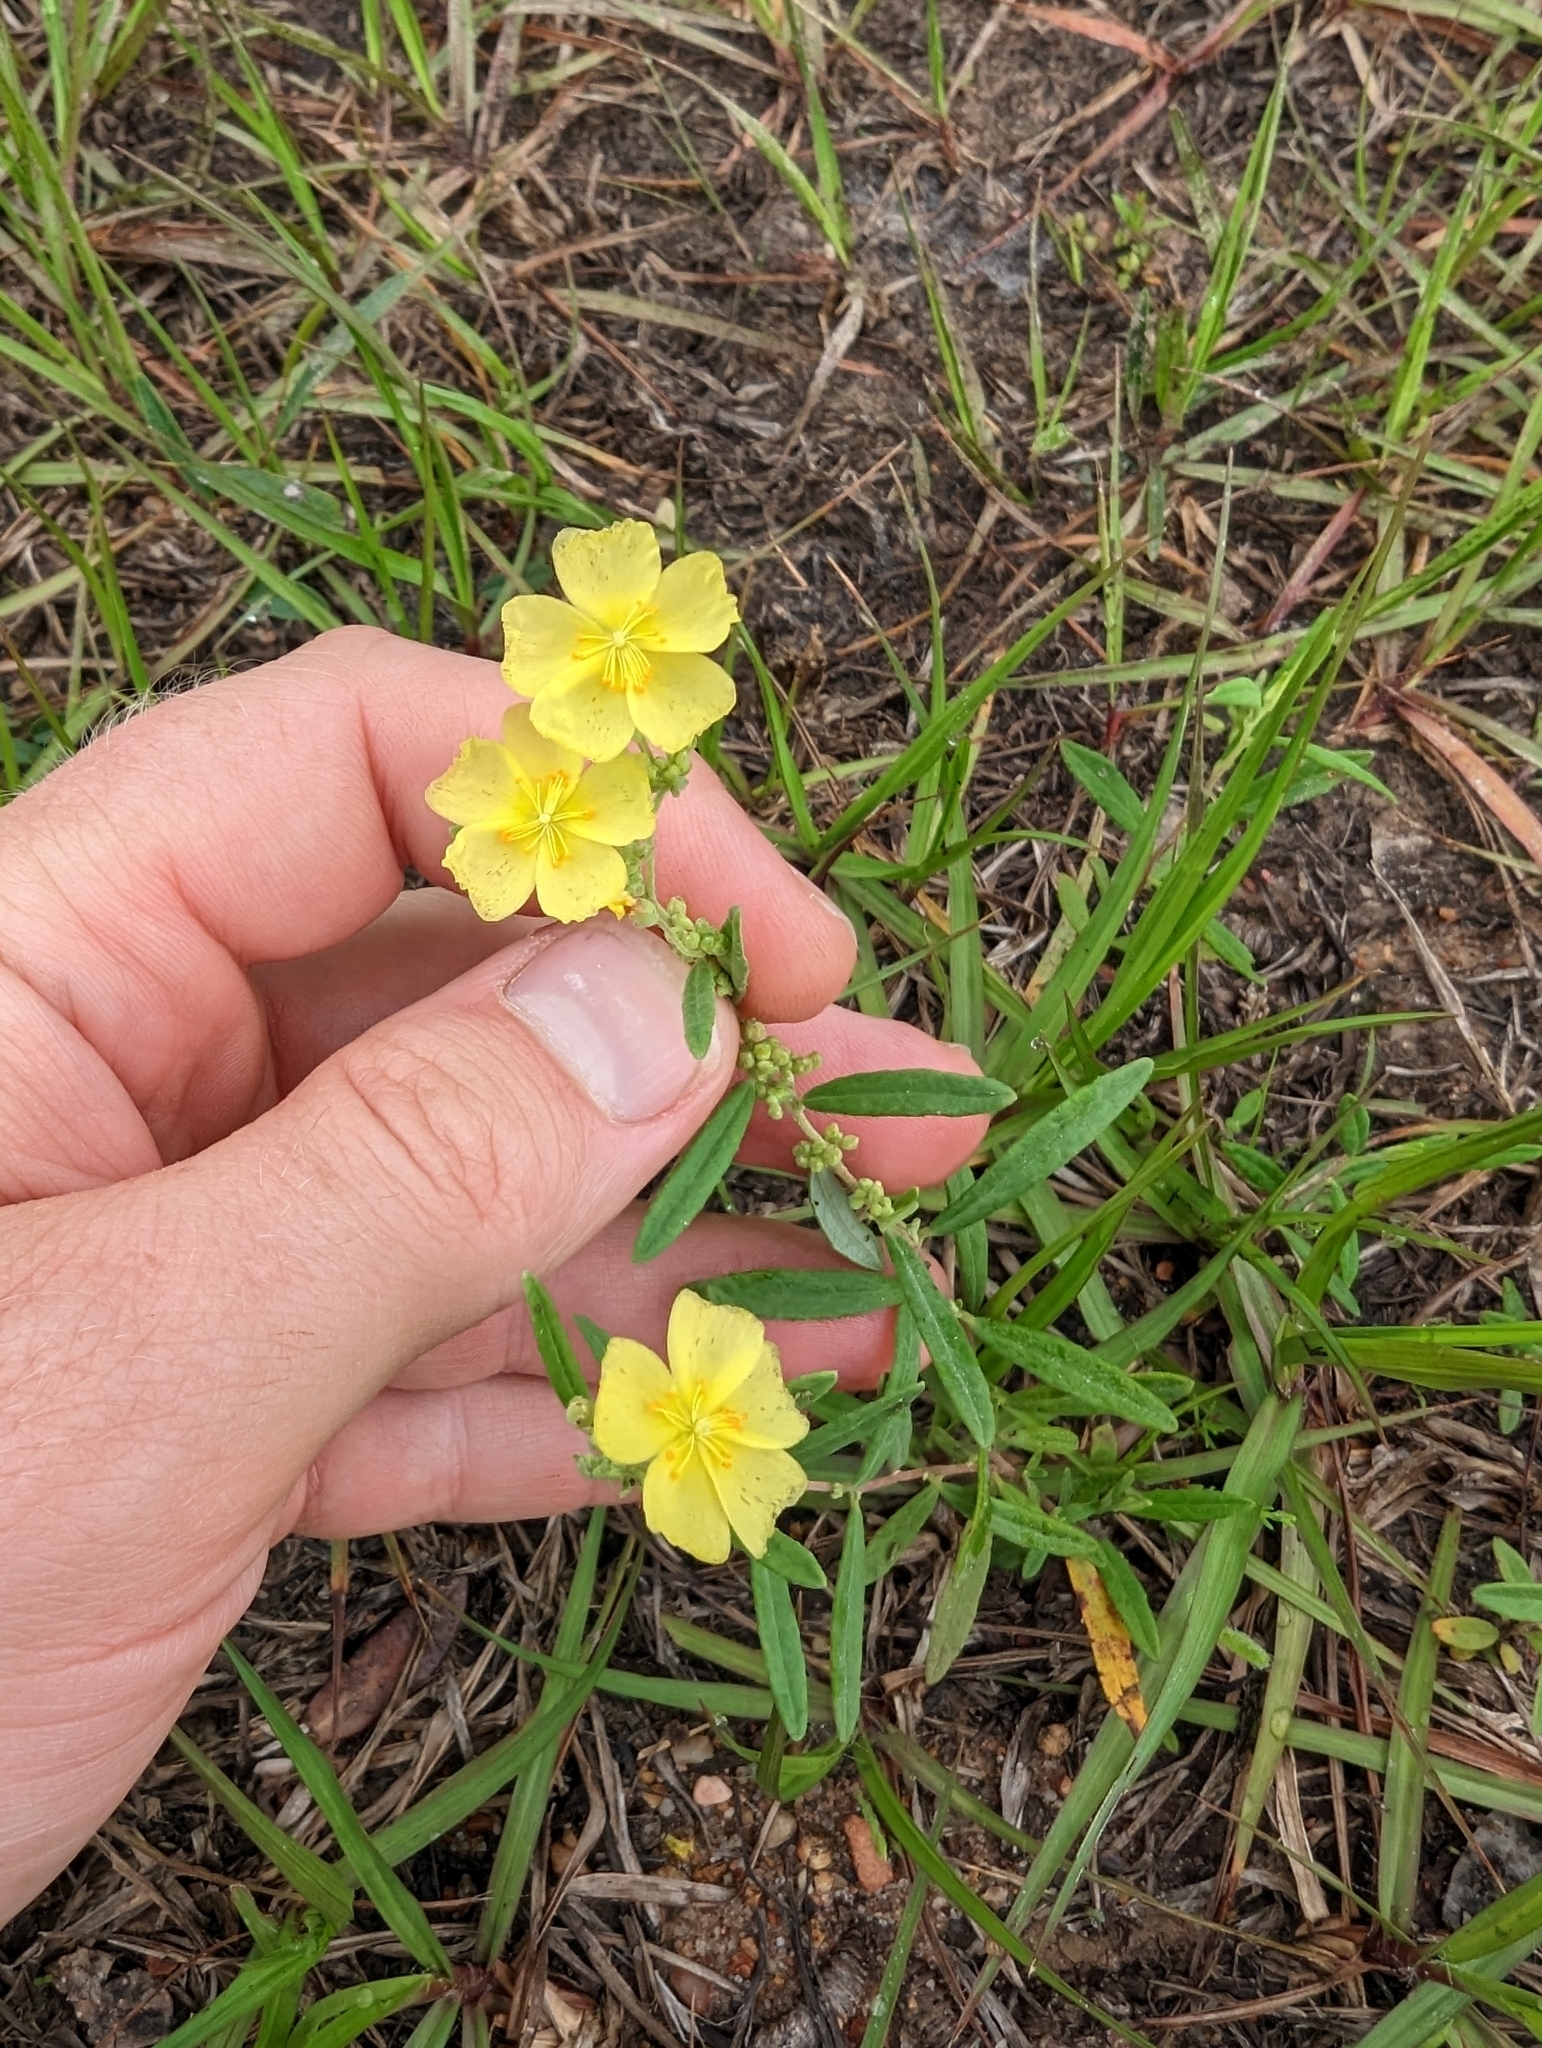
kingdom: Plantae
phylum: Tracheophyta
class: Magnoliopsida
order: Malvales
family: Cistaceae
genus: Crocanthemum
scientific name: Crocanthemum rosmarinifolium
